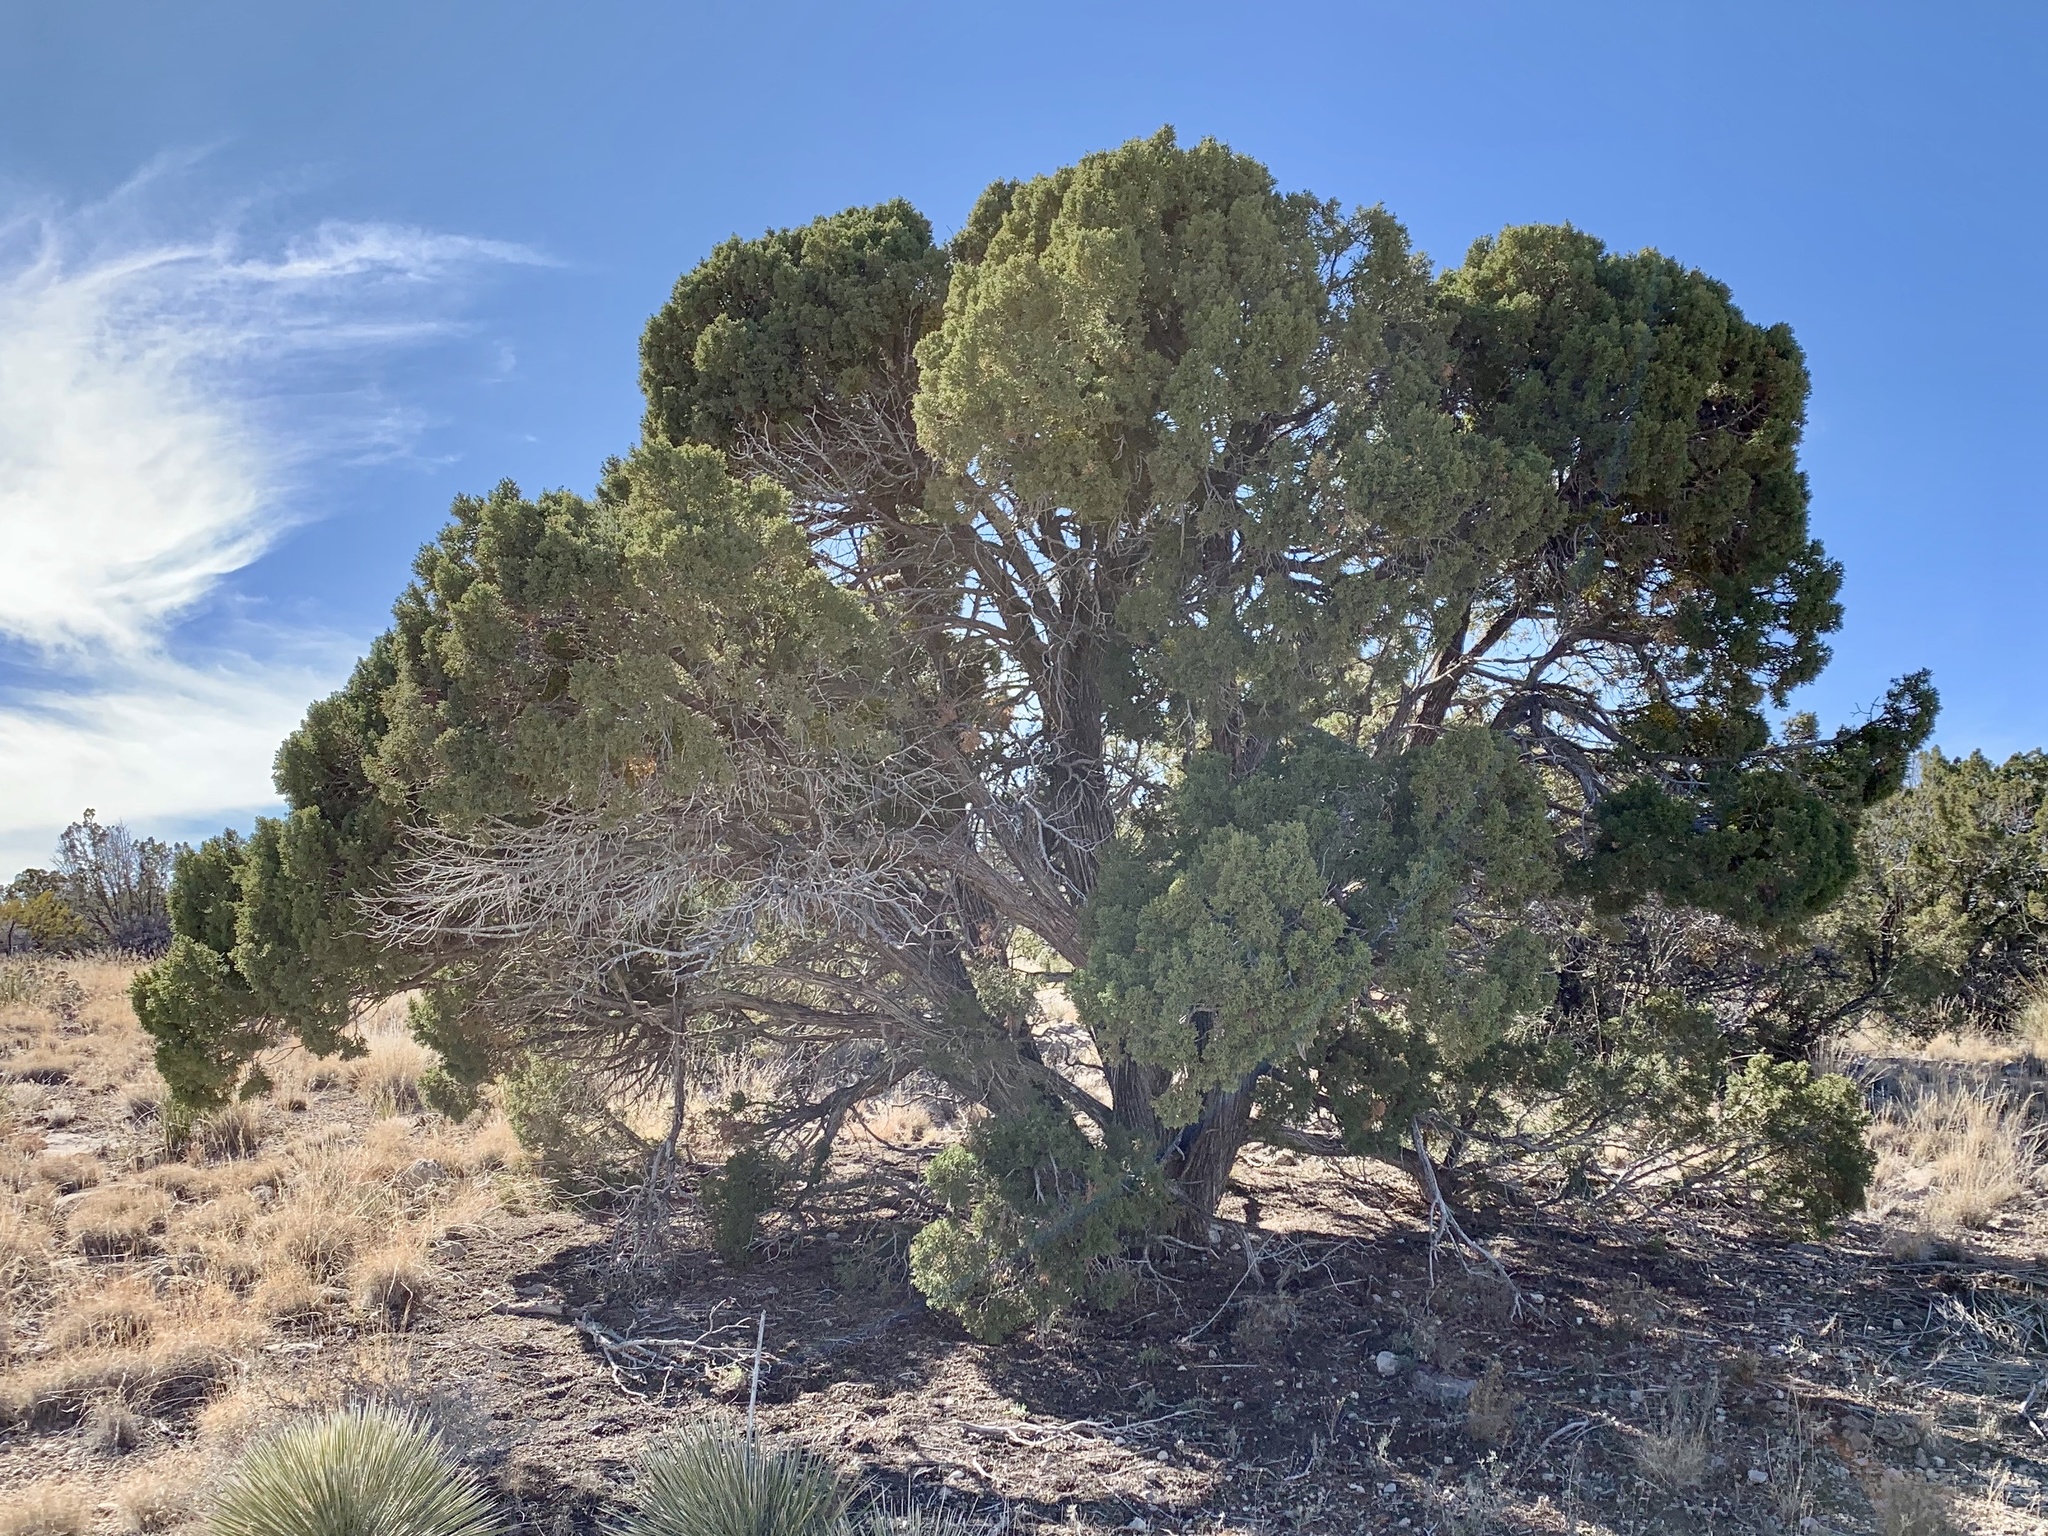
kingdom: Plantae
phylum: Tracheophyta
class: Pinopsida
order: Pinales
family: Cupressaceae
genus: Juniperus
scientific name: Juniperus monosperma
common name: One-seed juniper
